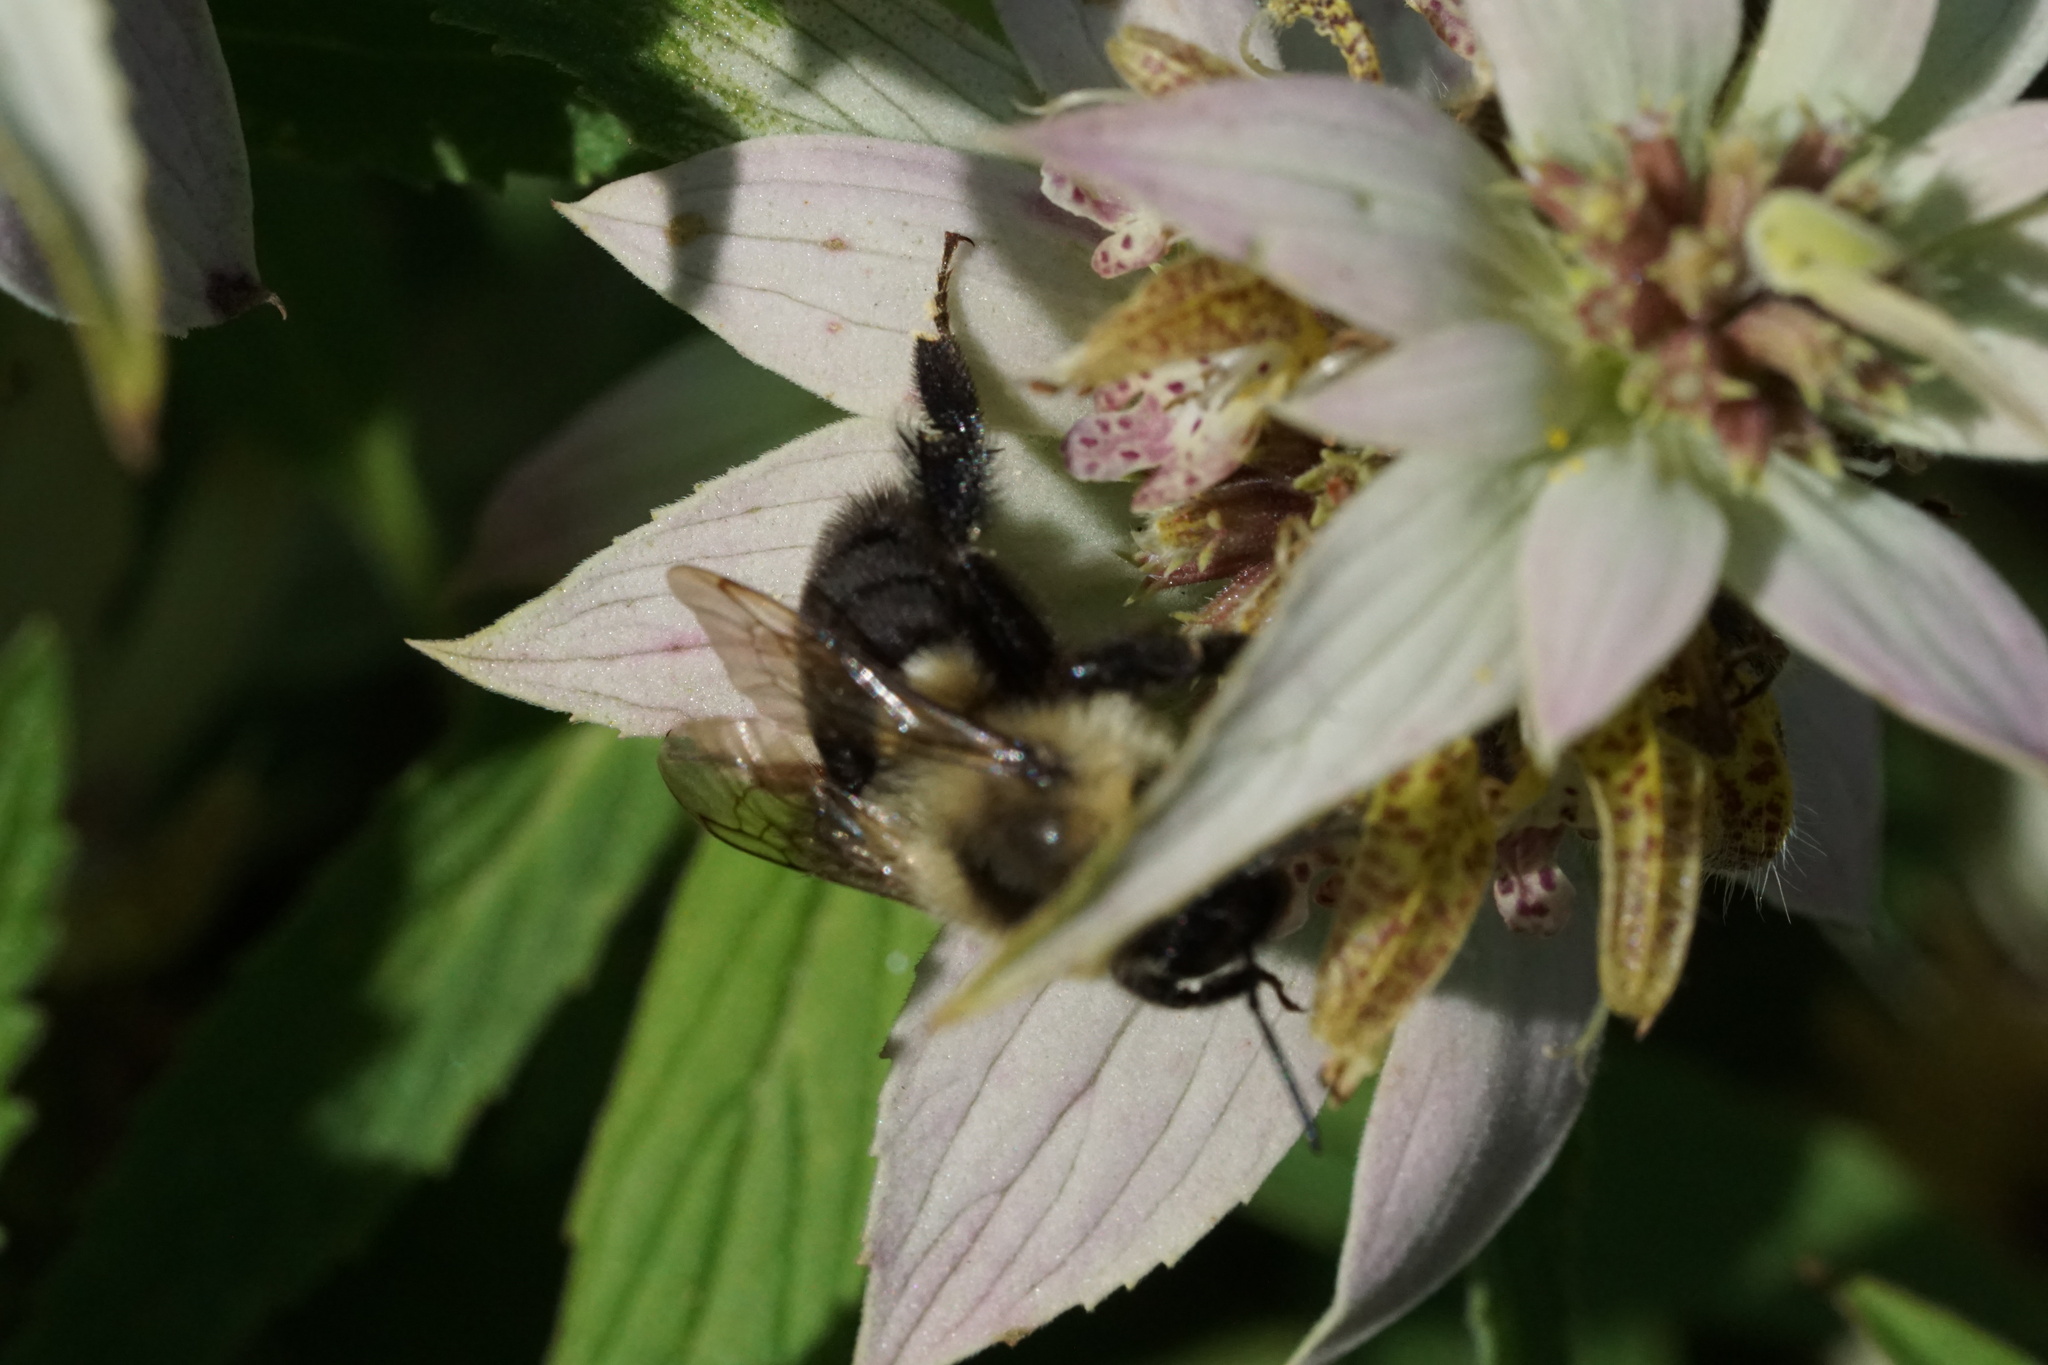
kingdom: Animalia
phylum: Arthropoda
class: Insecta
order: Hymenoptera
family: Apidae
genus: Bombus
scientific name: Bombus impatiens
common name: Common eastern bumble bee
